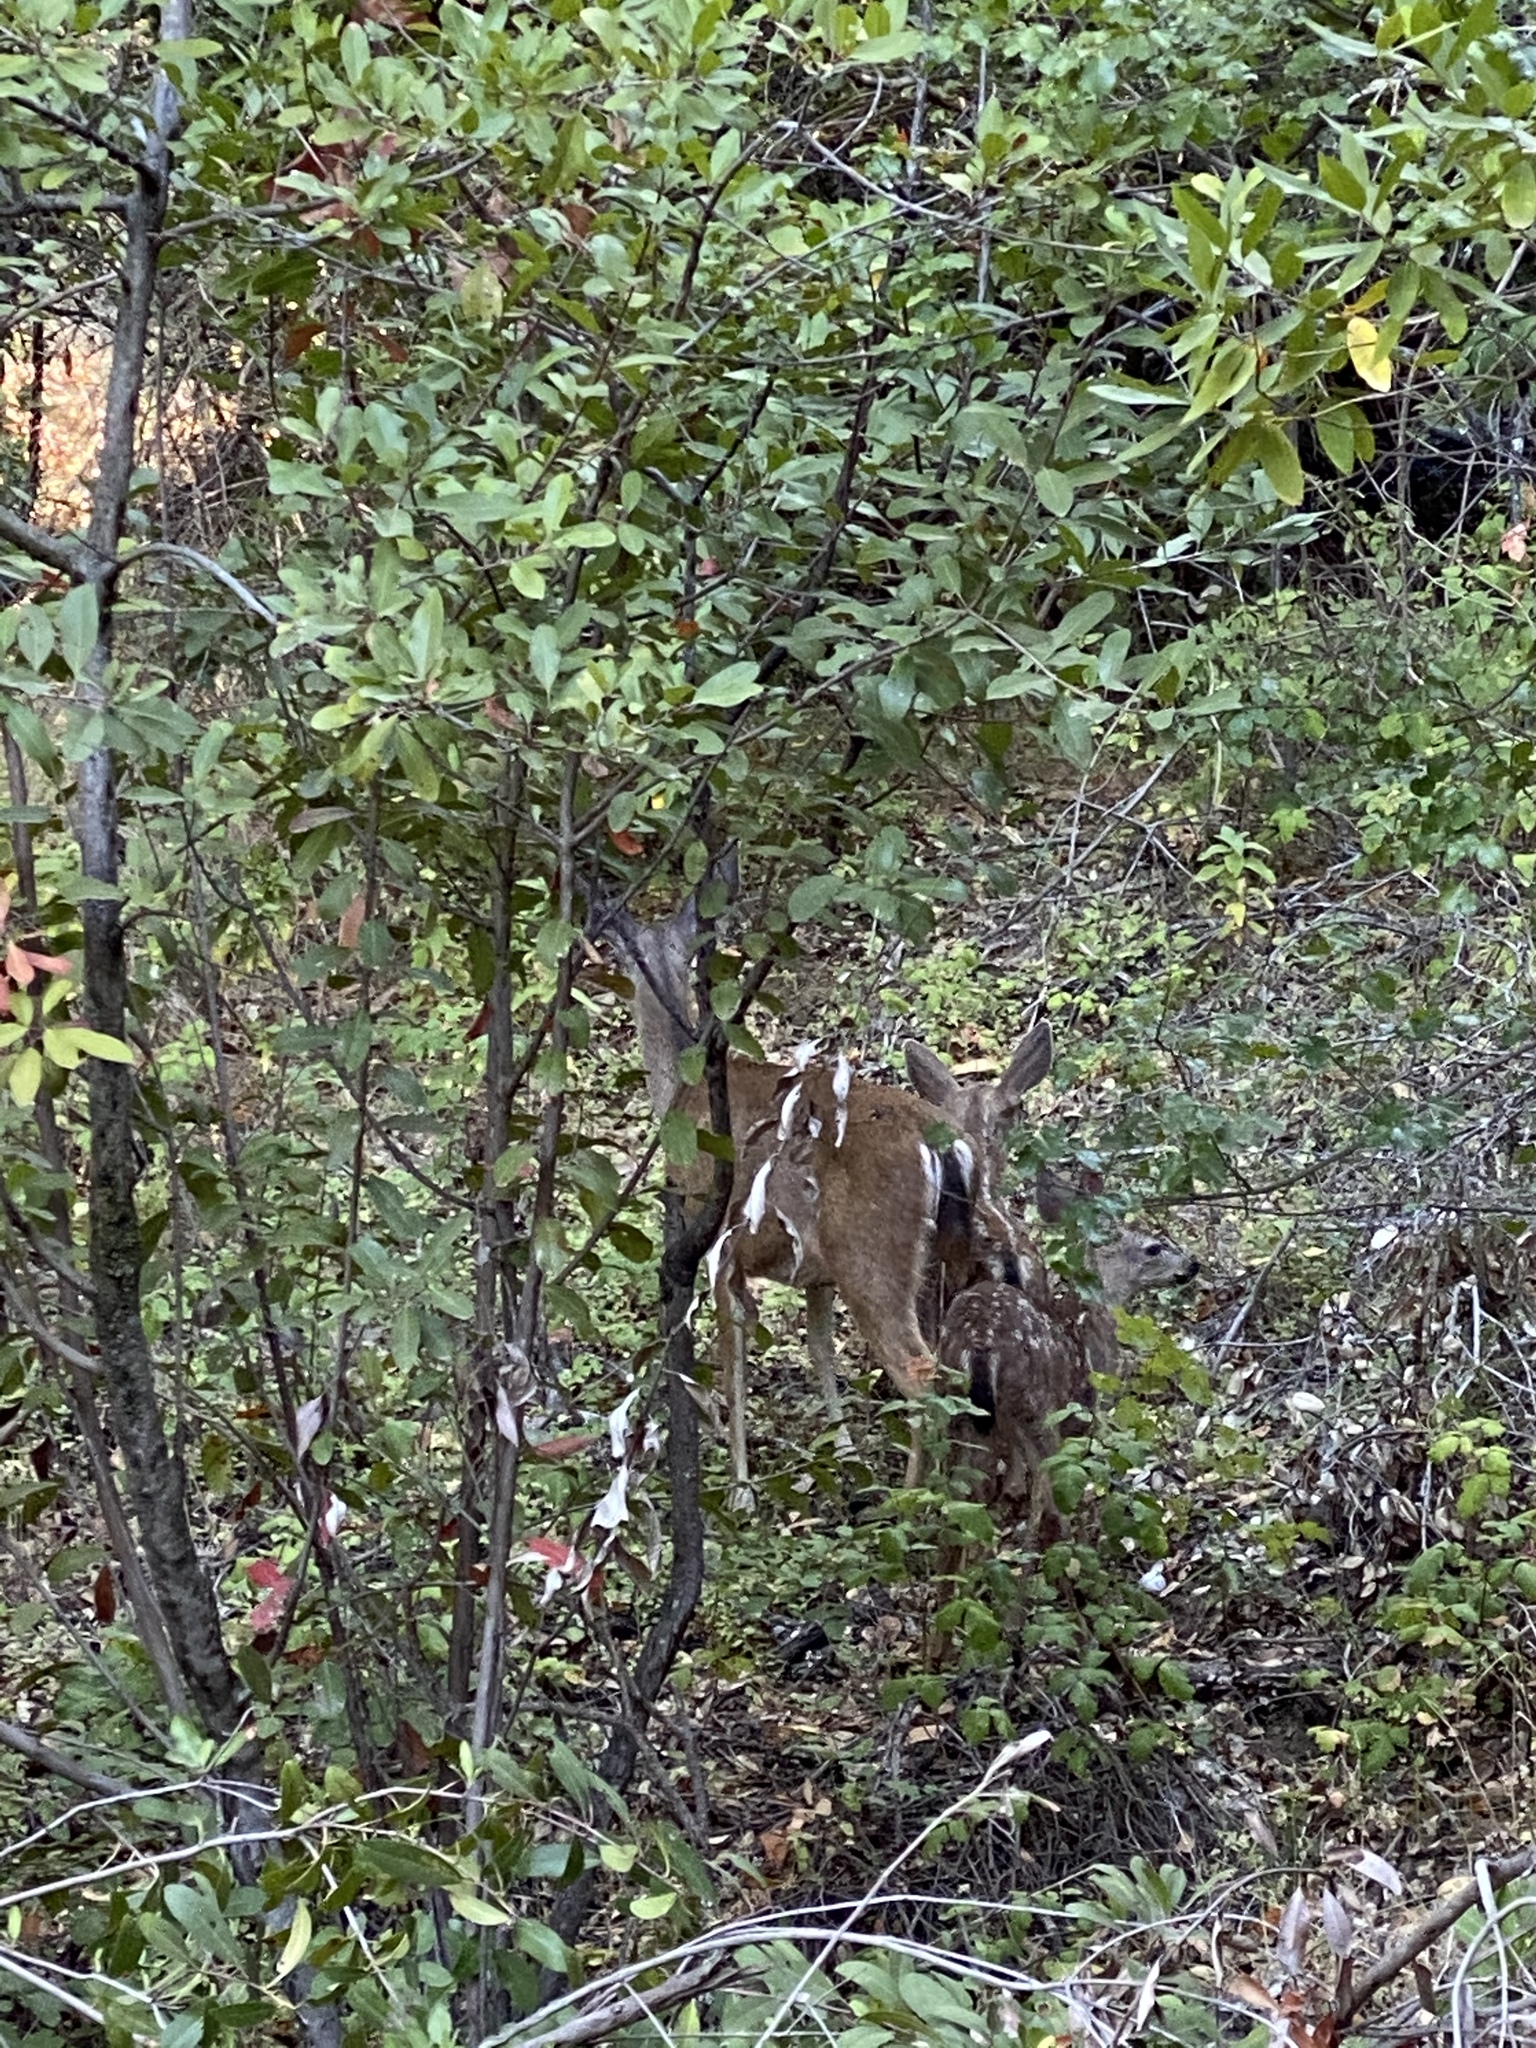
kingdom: Animalia
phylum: Chordata
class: Mammalia
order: Artiodactyla
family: Cervidae
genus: Odocoileus
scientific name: Odocoileus hemionus
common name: Mule deer
